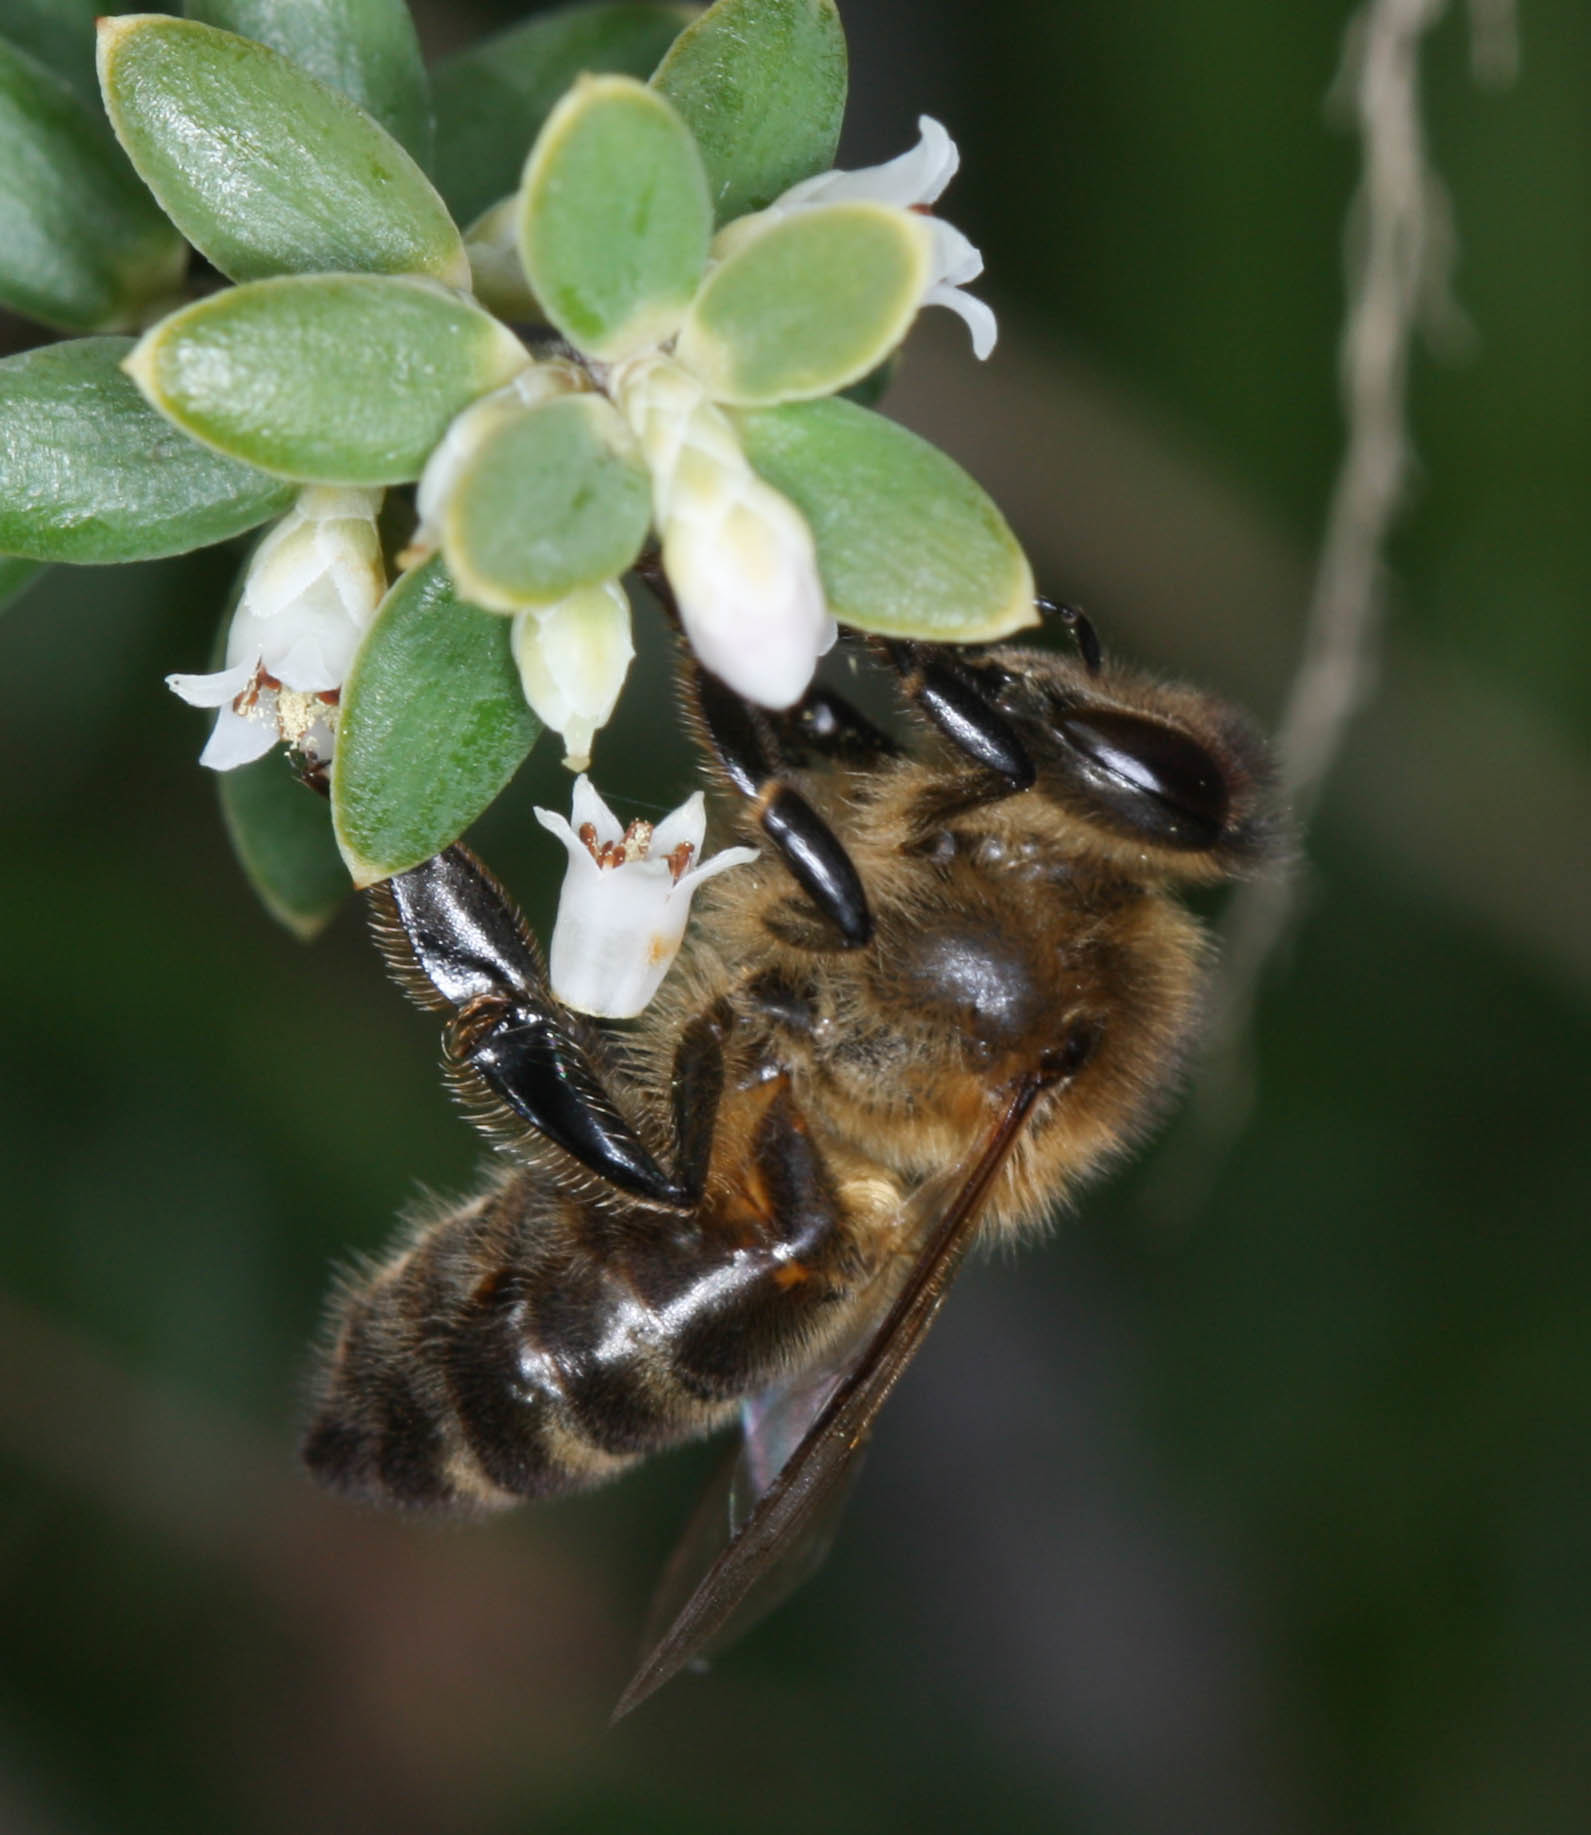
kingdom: Animalia
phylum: Arthropoda
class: Insecta
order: Hymenoptera
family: Apidae
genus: Apis
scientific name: Apis mellifera
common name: Honey bee
